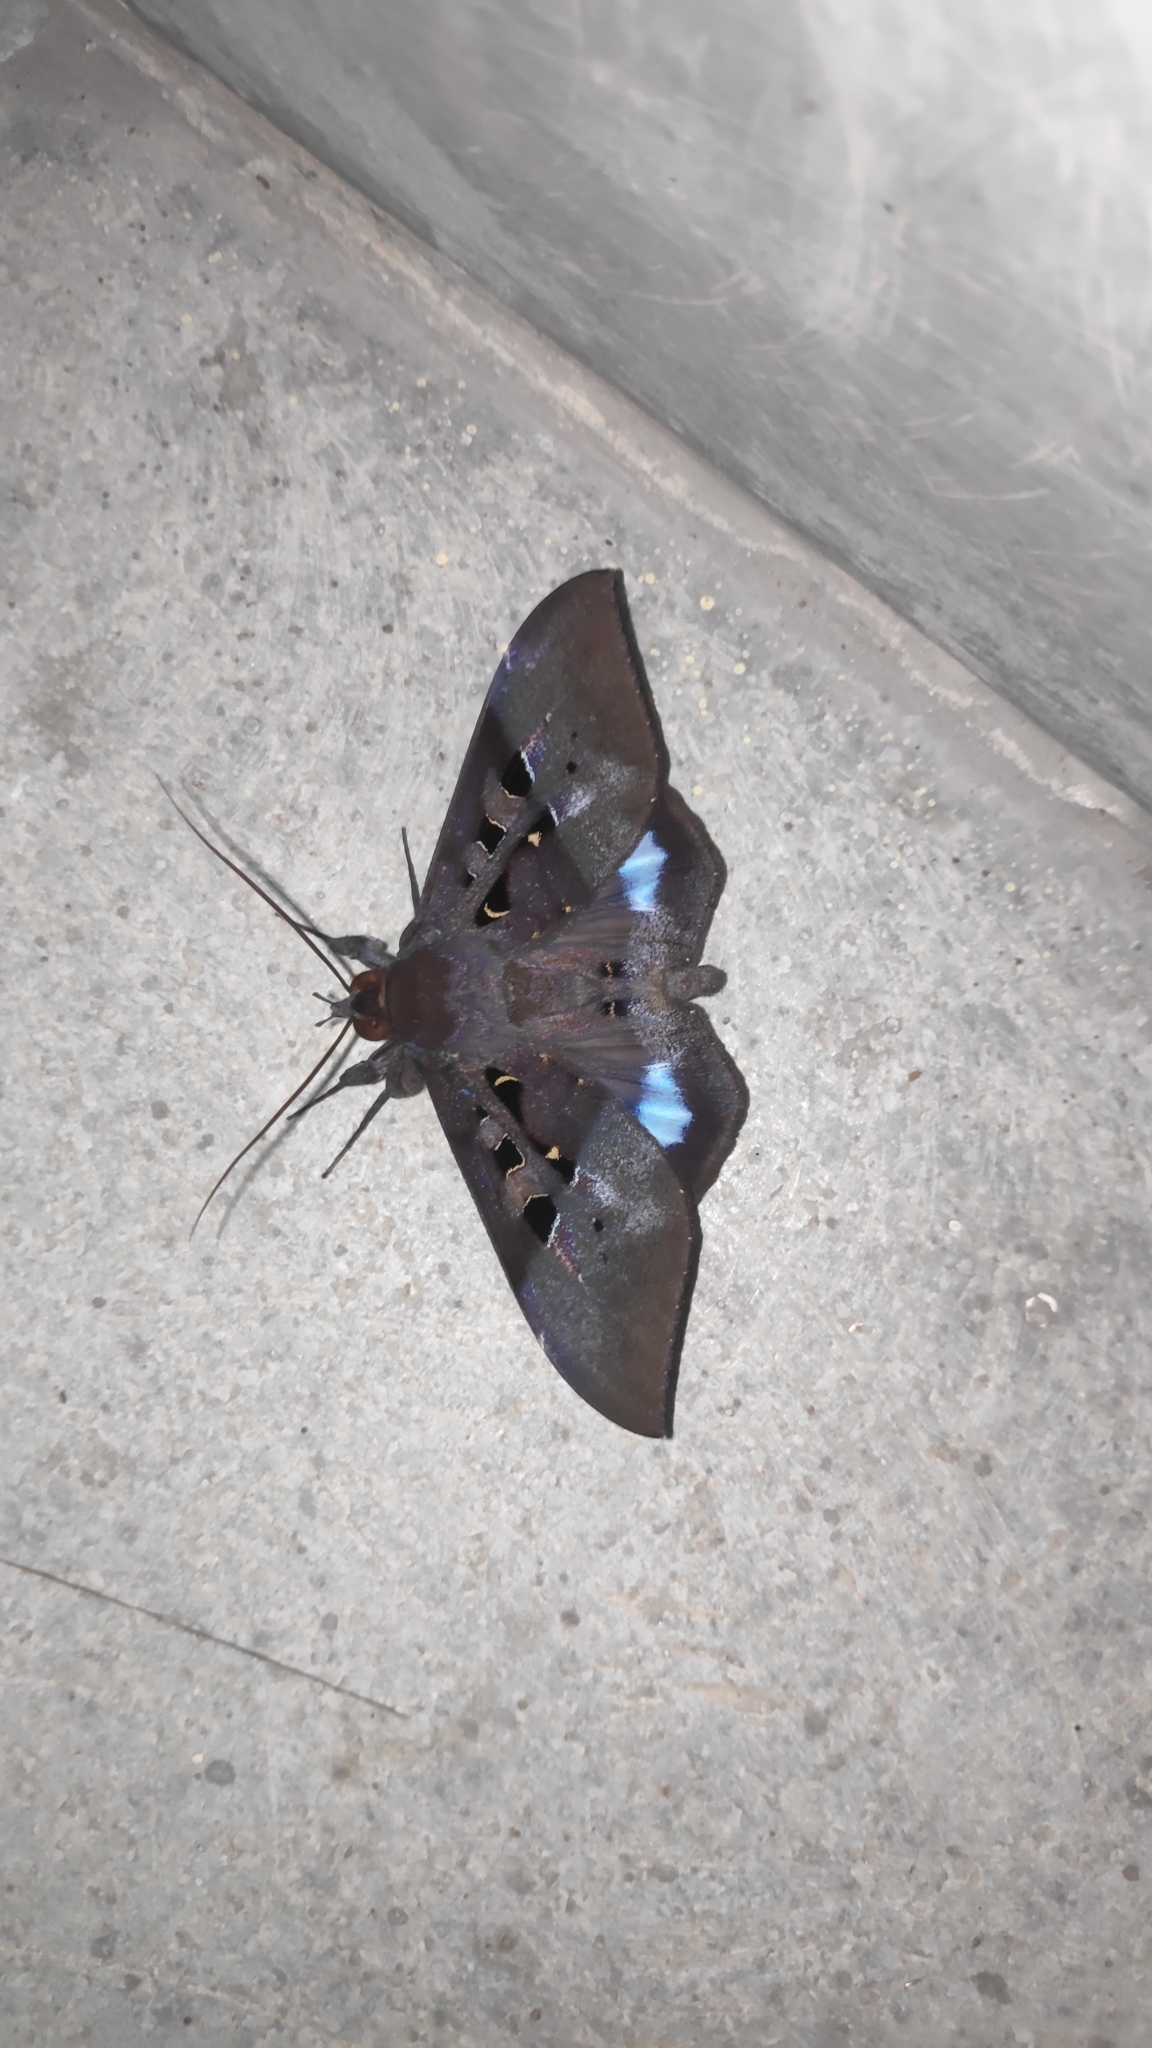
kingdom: Animalia
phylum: Arthropoda
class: Insecta
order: Lepidoptera
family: Erebidae
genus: Ischyja
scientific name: Ischyja marapok
